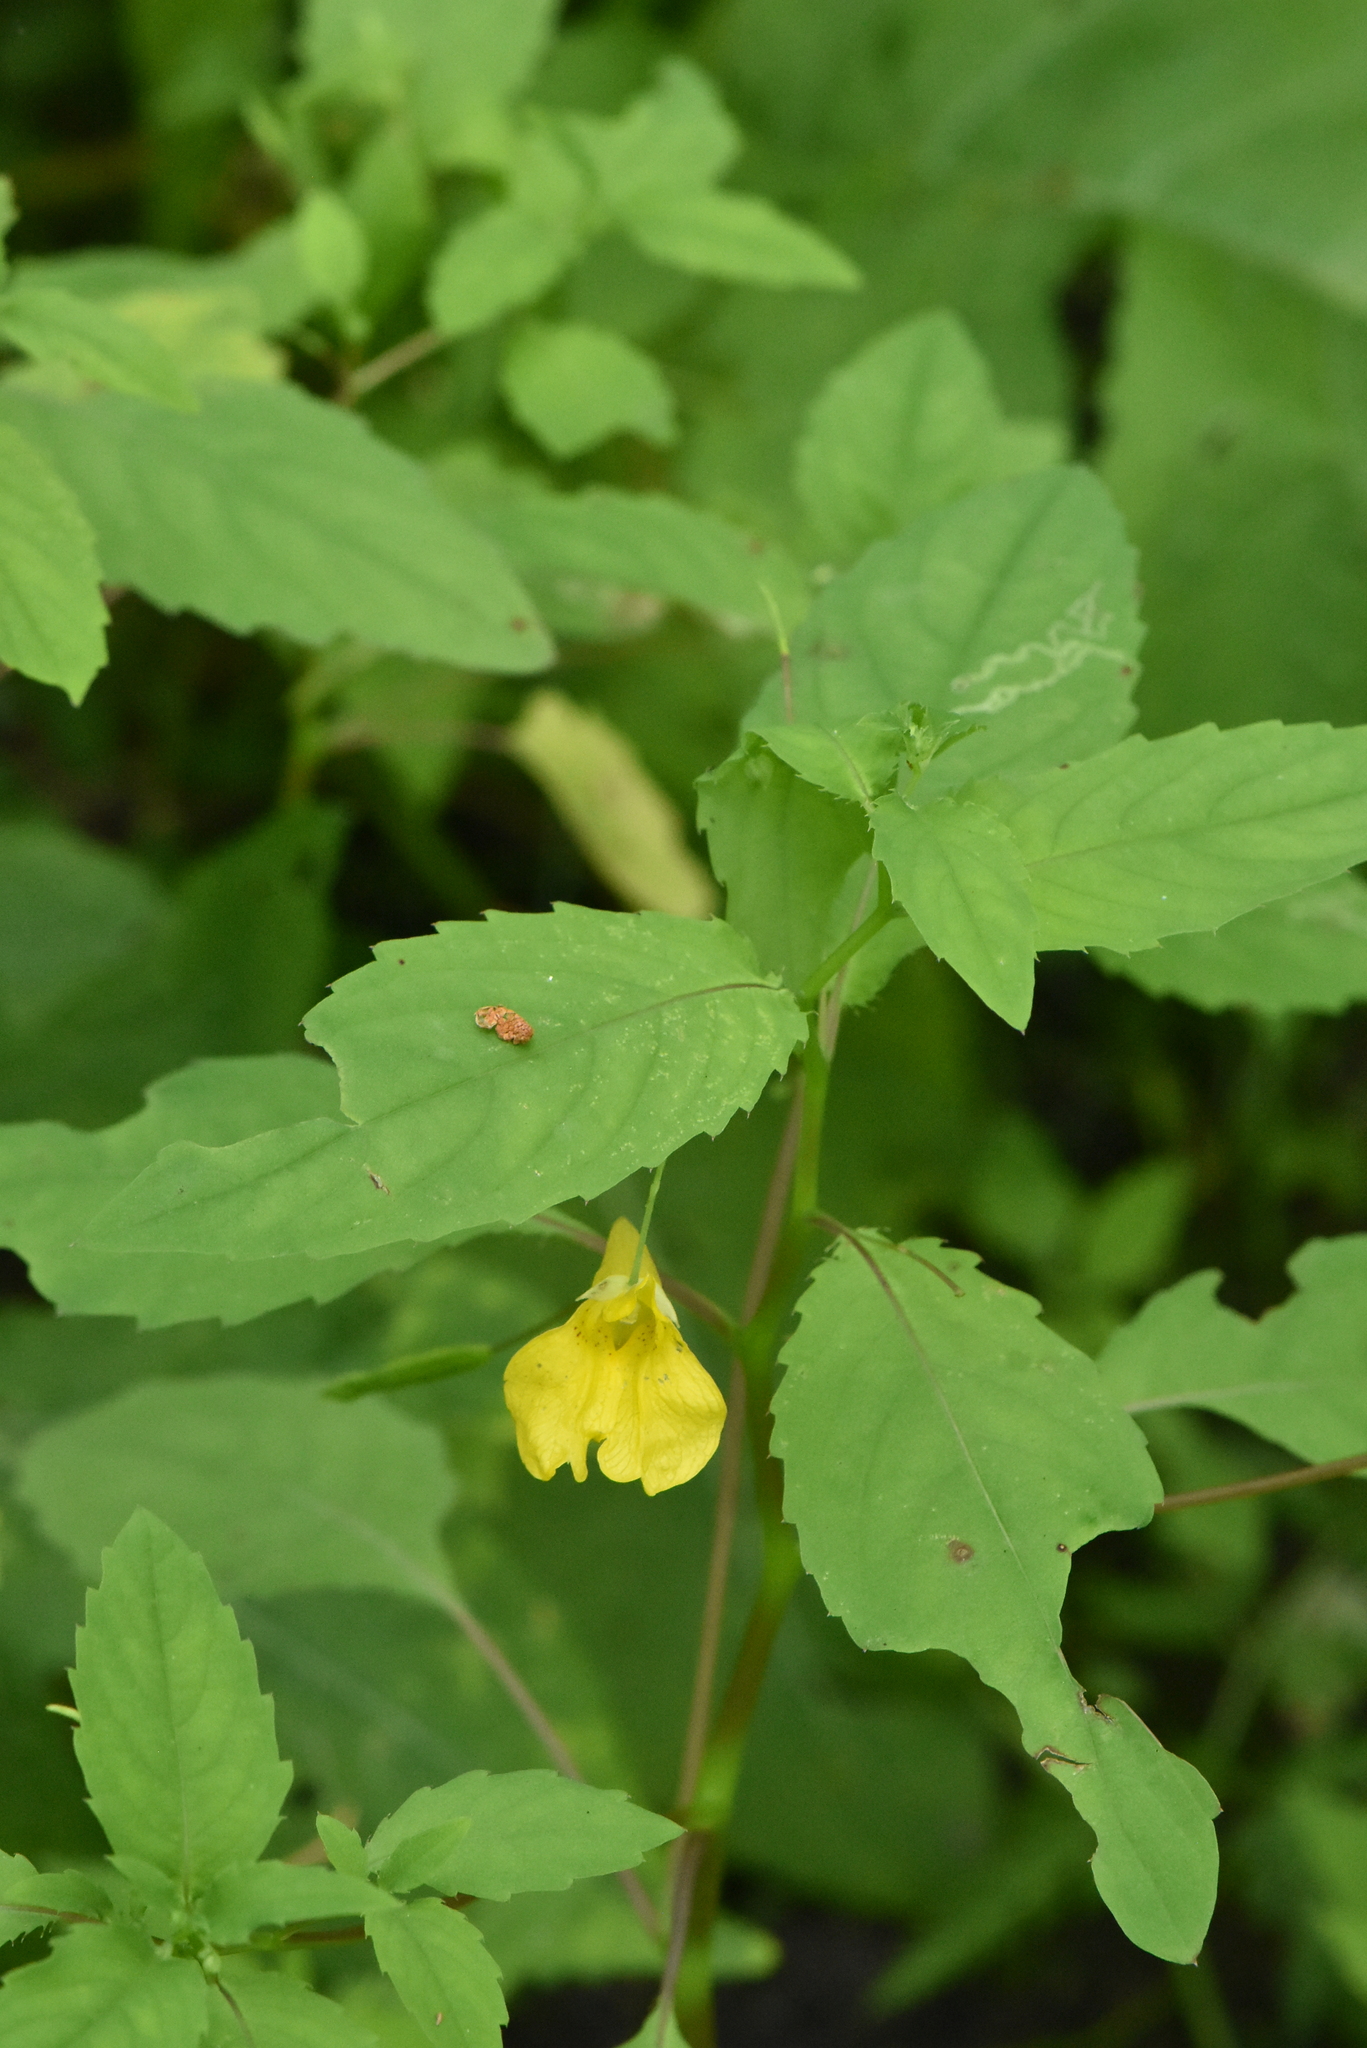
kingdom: Plantae
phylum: Tracheophyta
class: Magnoliopsida
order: Ericales
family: Balsaminaceae
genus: Impatiens
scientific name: Impatiens noli-tangere
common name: Touch-me-not balsam
